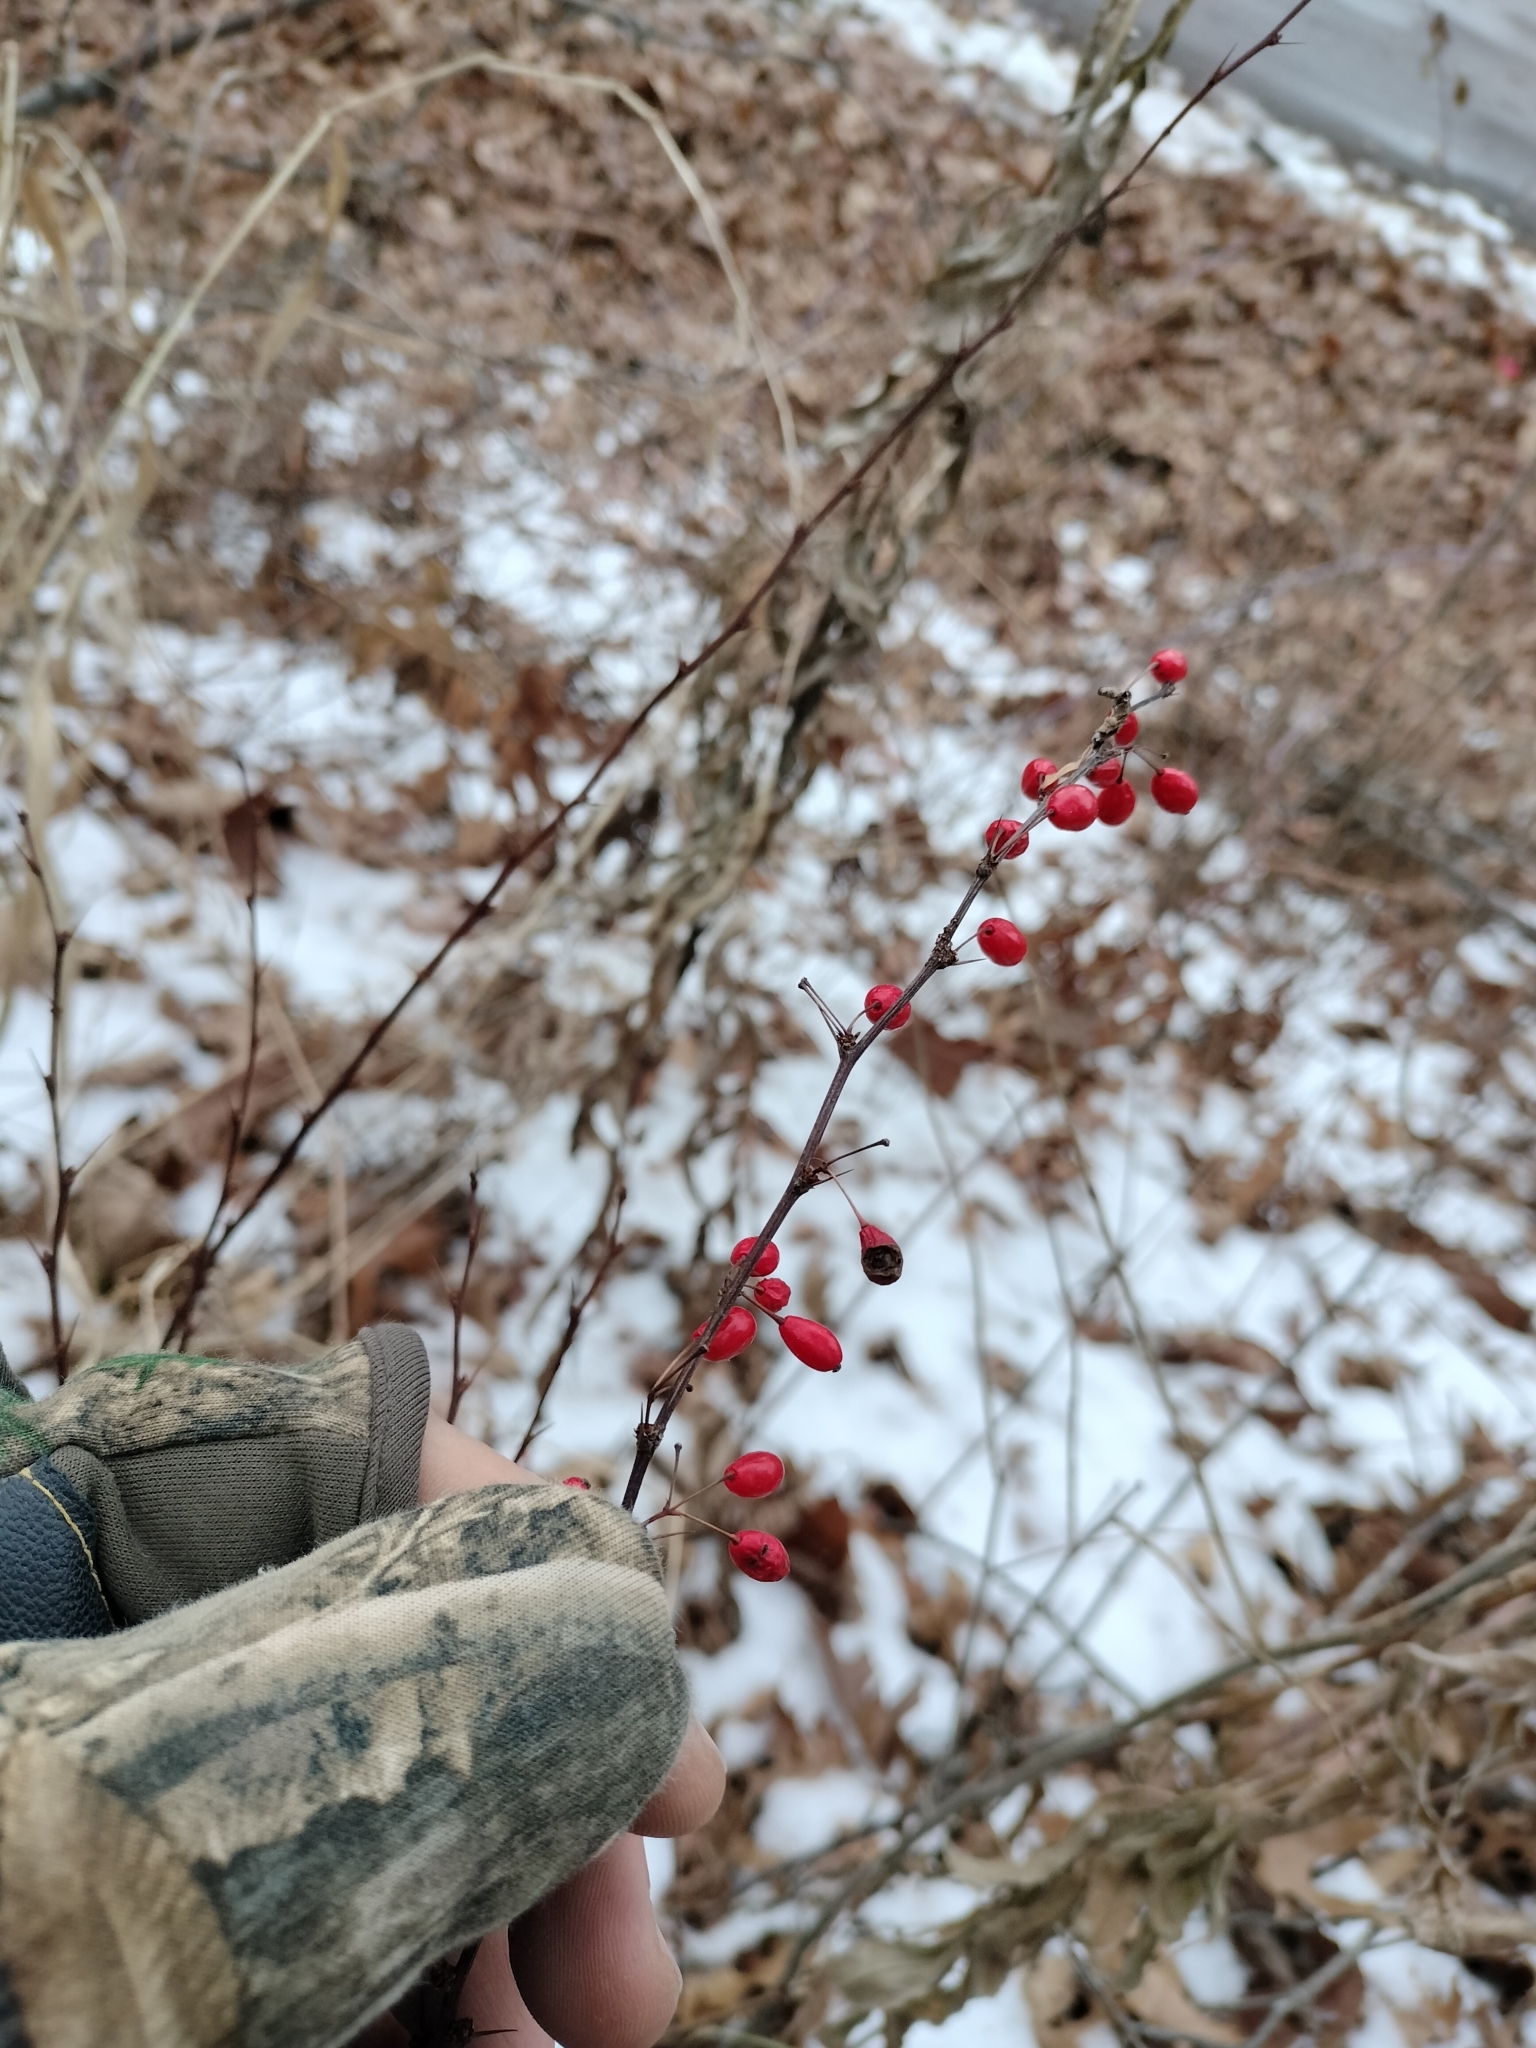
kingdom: Plantae
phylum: Tracheophyta
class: Magnoliopsida
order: Ranunculales
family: Berberidaceae
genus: Berberis
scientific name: Berberis thunbergii
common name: Japanese barberry
